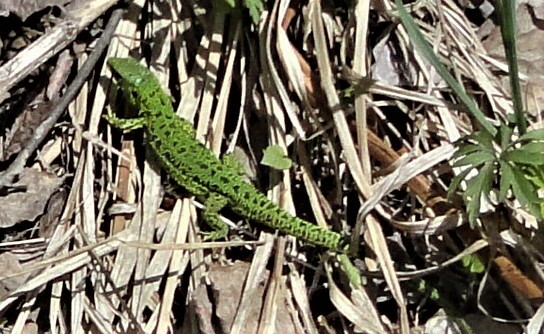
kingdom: Animalia
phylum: Chordata
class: Squamata
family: Lacertidae
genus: Lacerta
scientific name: Lacerta agilis
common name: Sand lizard
